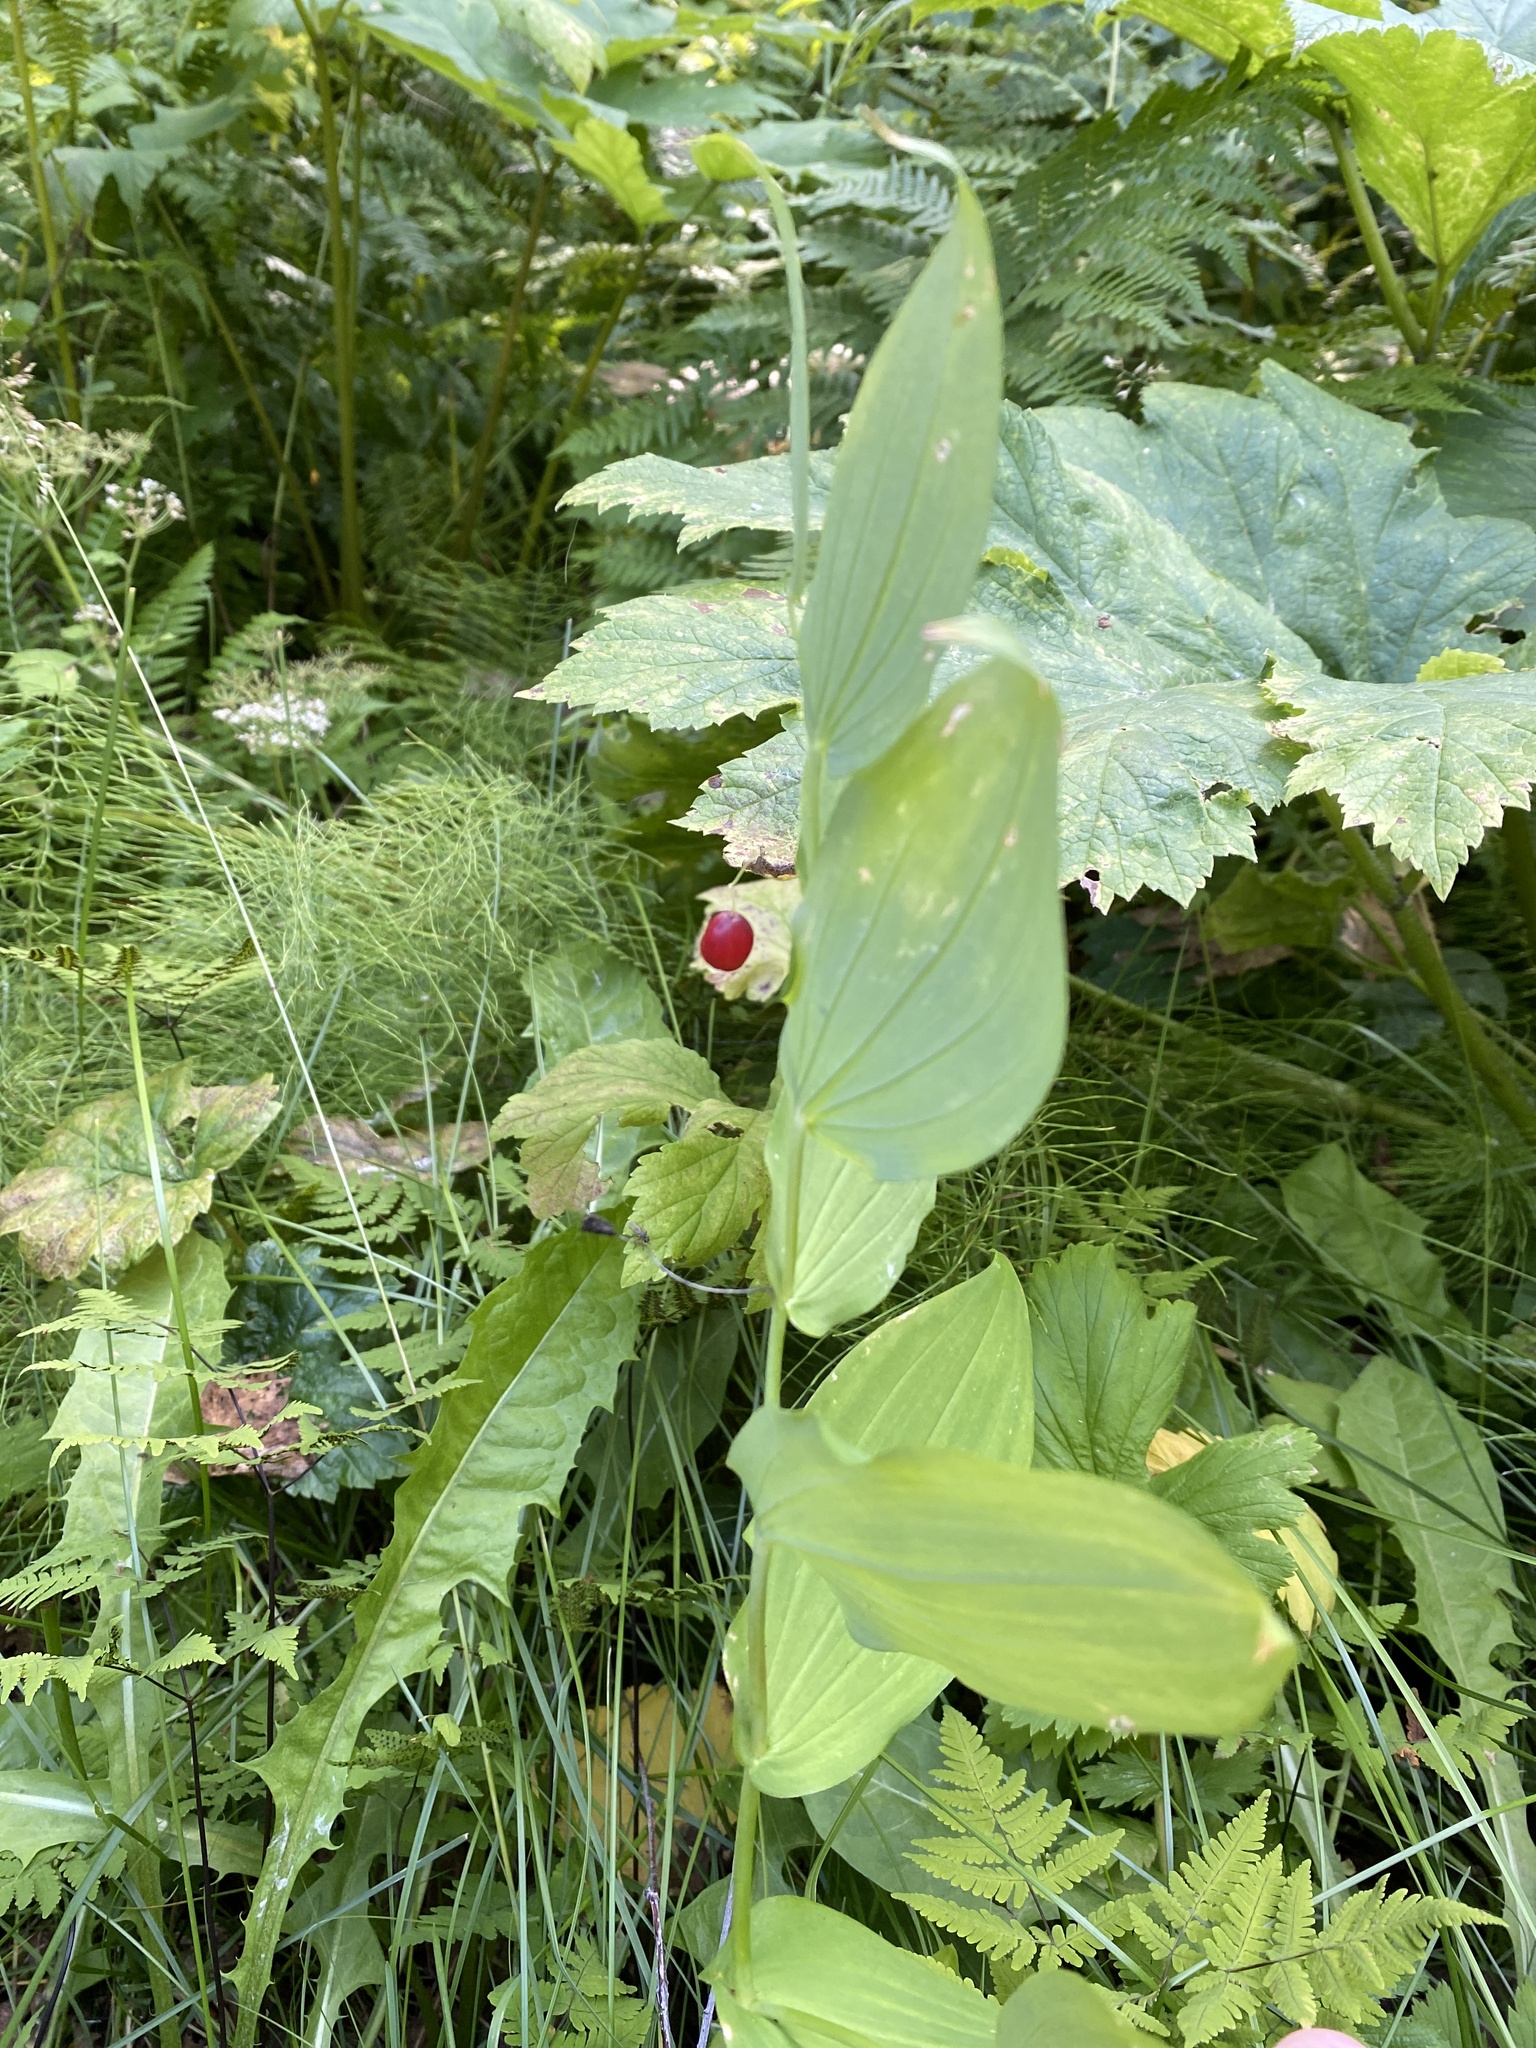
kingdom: Plantae
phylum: Tracheophyta
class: Liliopsida
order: Liliales
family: Liliaceae
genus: Streptopus
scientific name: Streptopus amplexifolius
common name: Clasp twisted stalk
